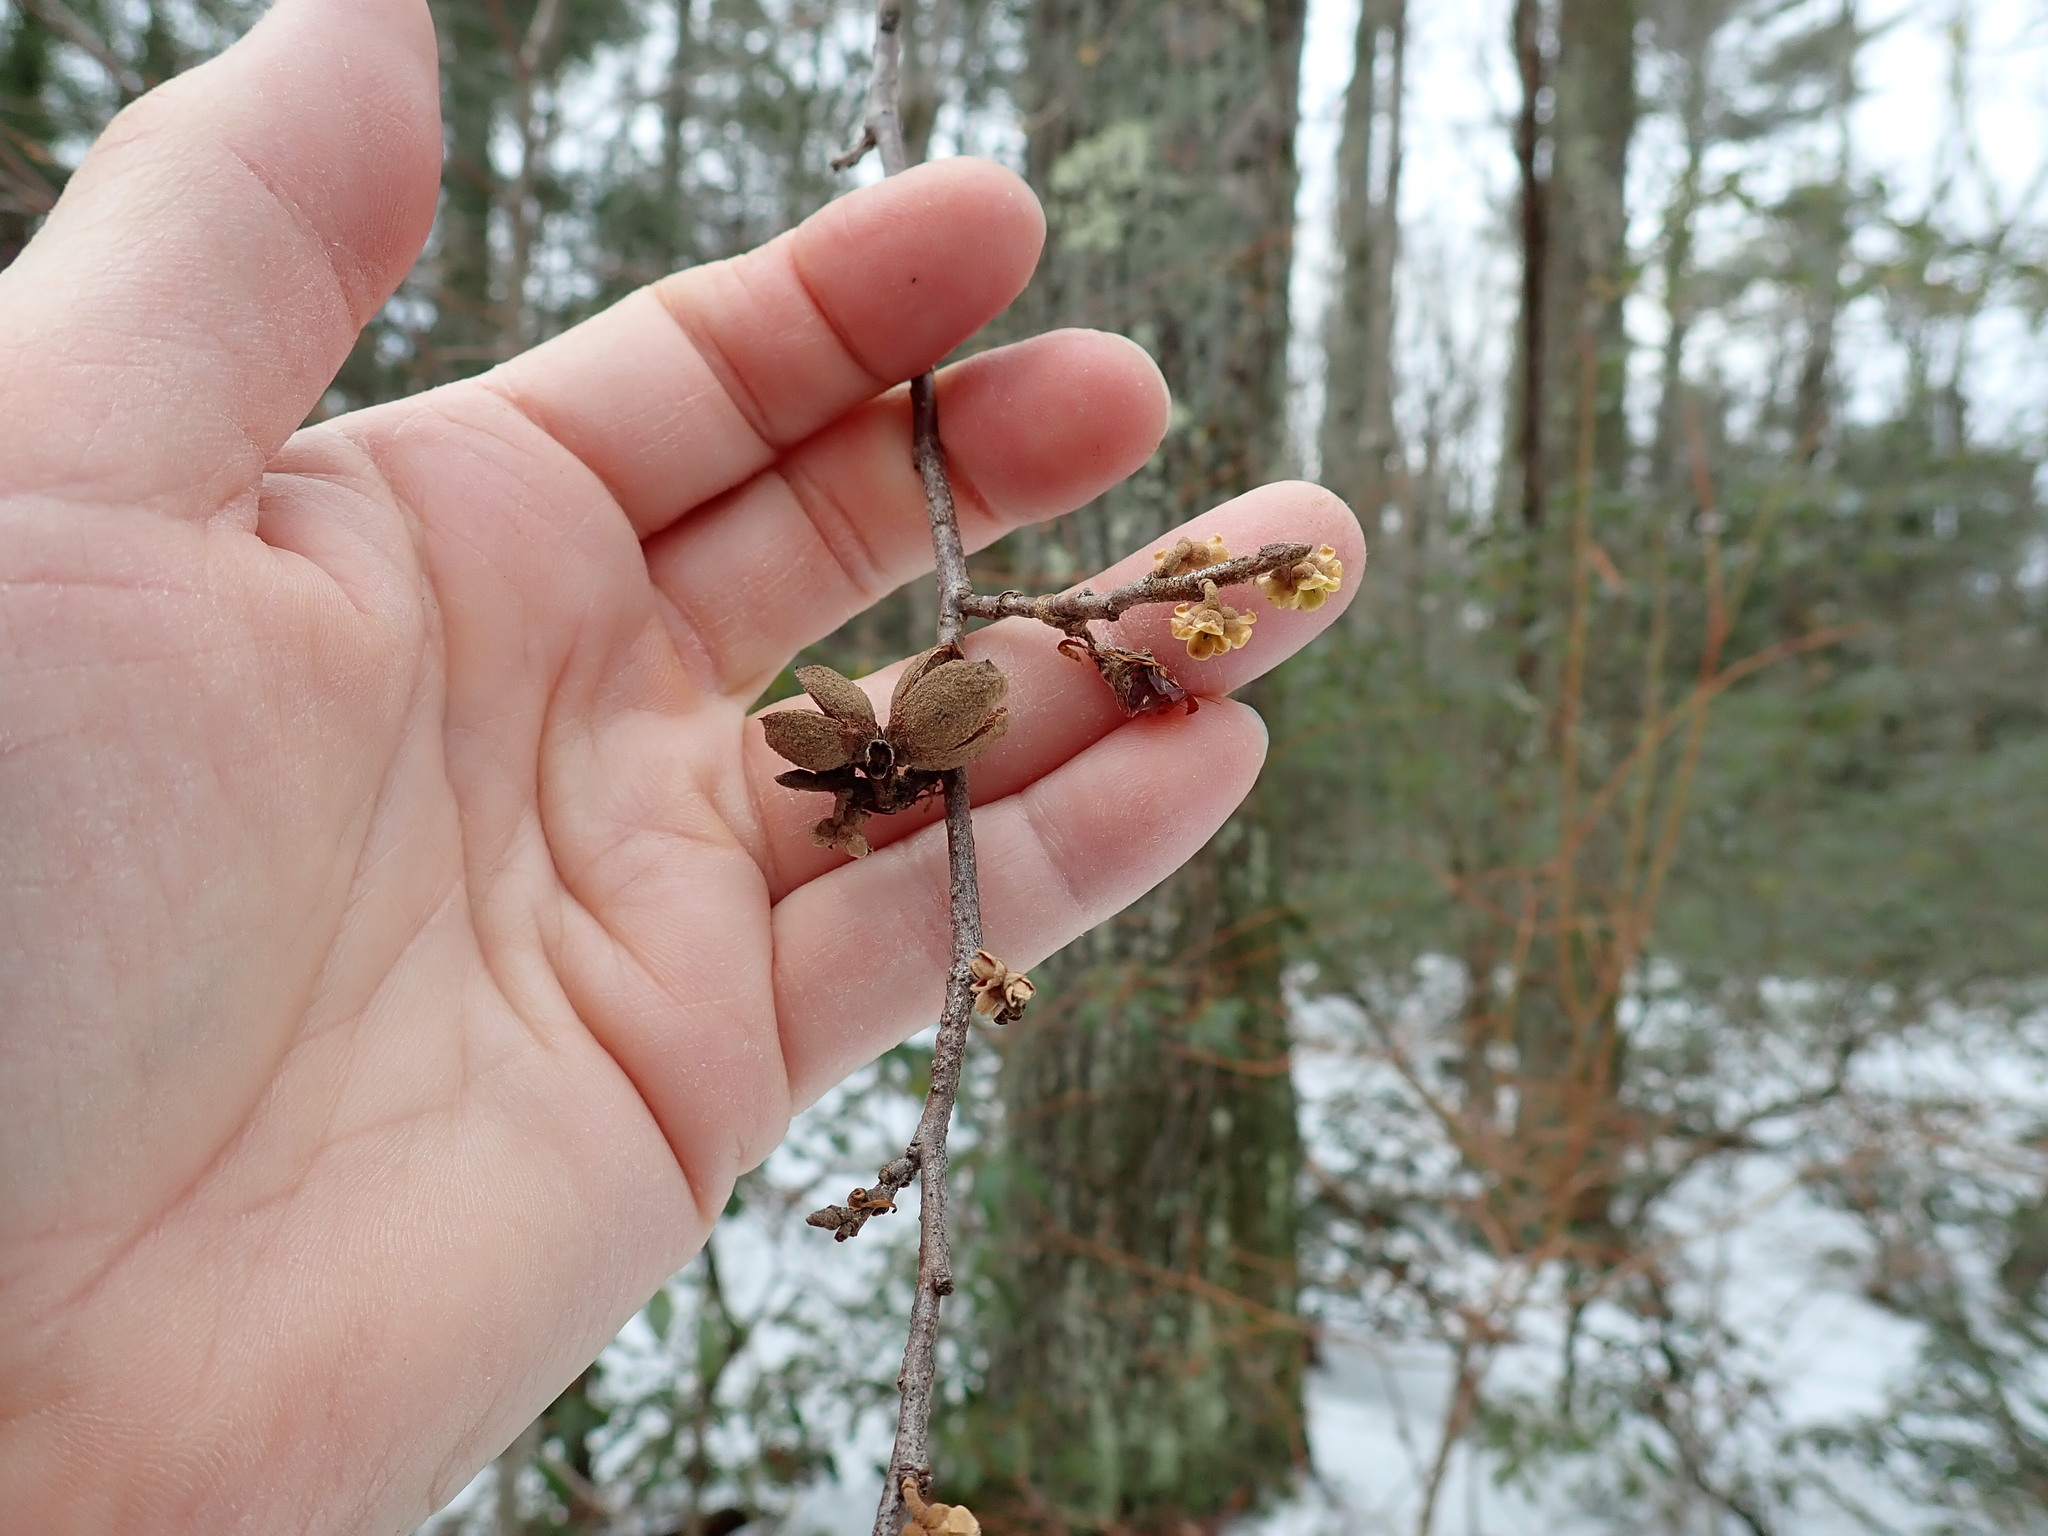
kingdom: Plantae
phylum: Tracheophyta
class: Magnoliopsida
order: Saxifragales
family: Hamamelidaceae
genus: Hamamelis
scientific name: Hamamelis virginiana
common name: Witch-hazel
